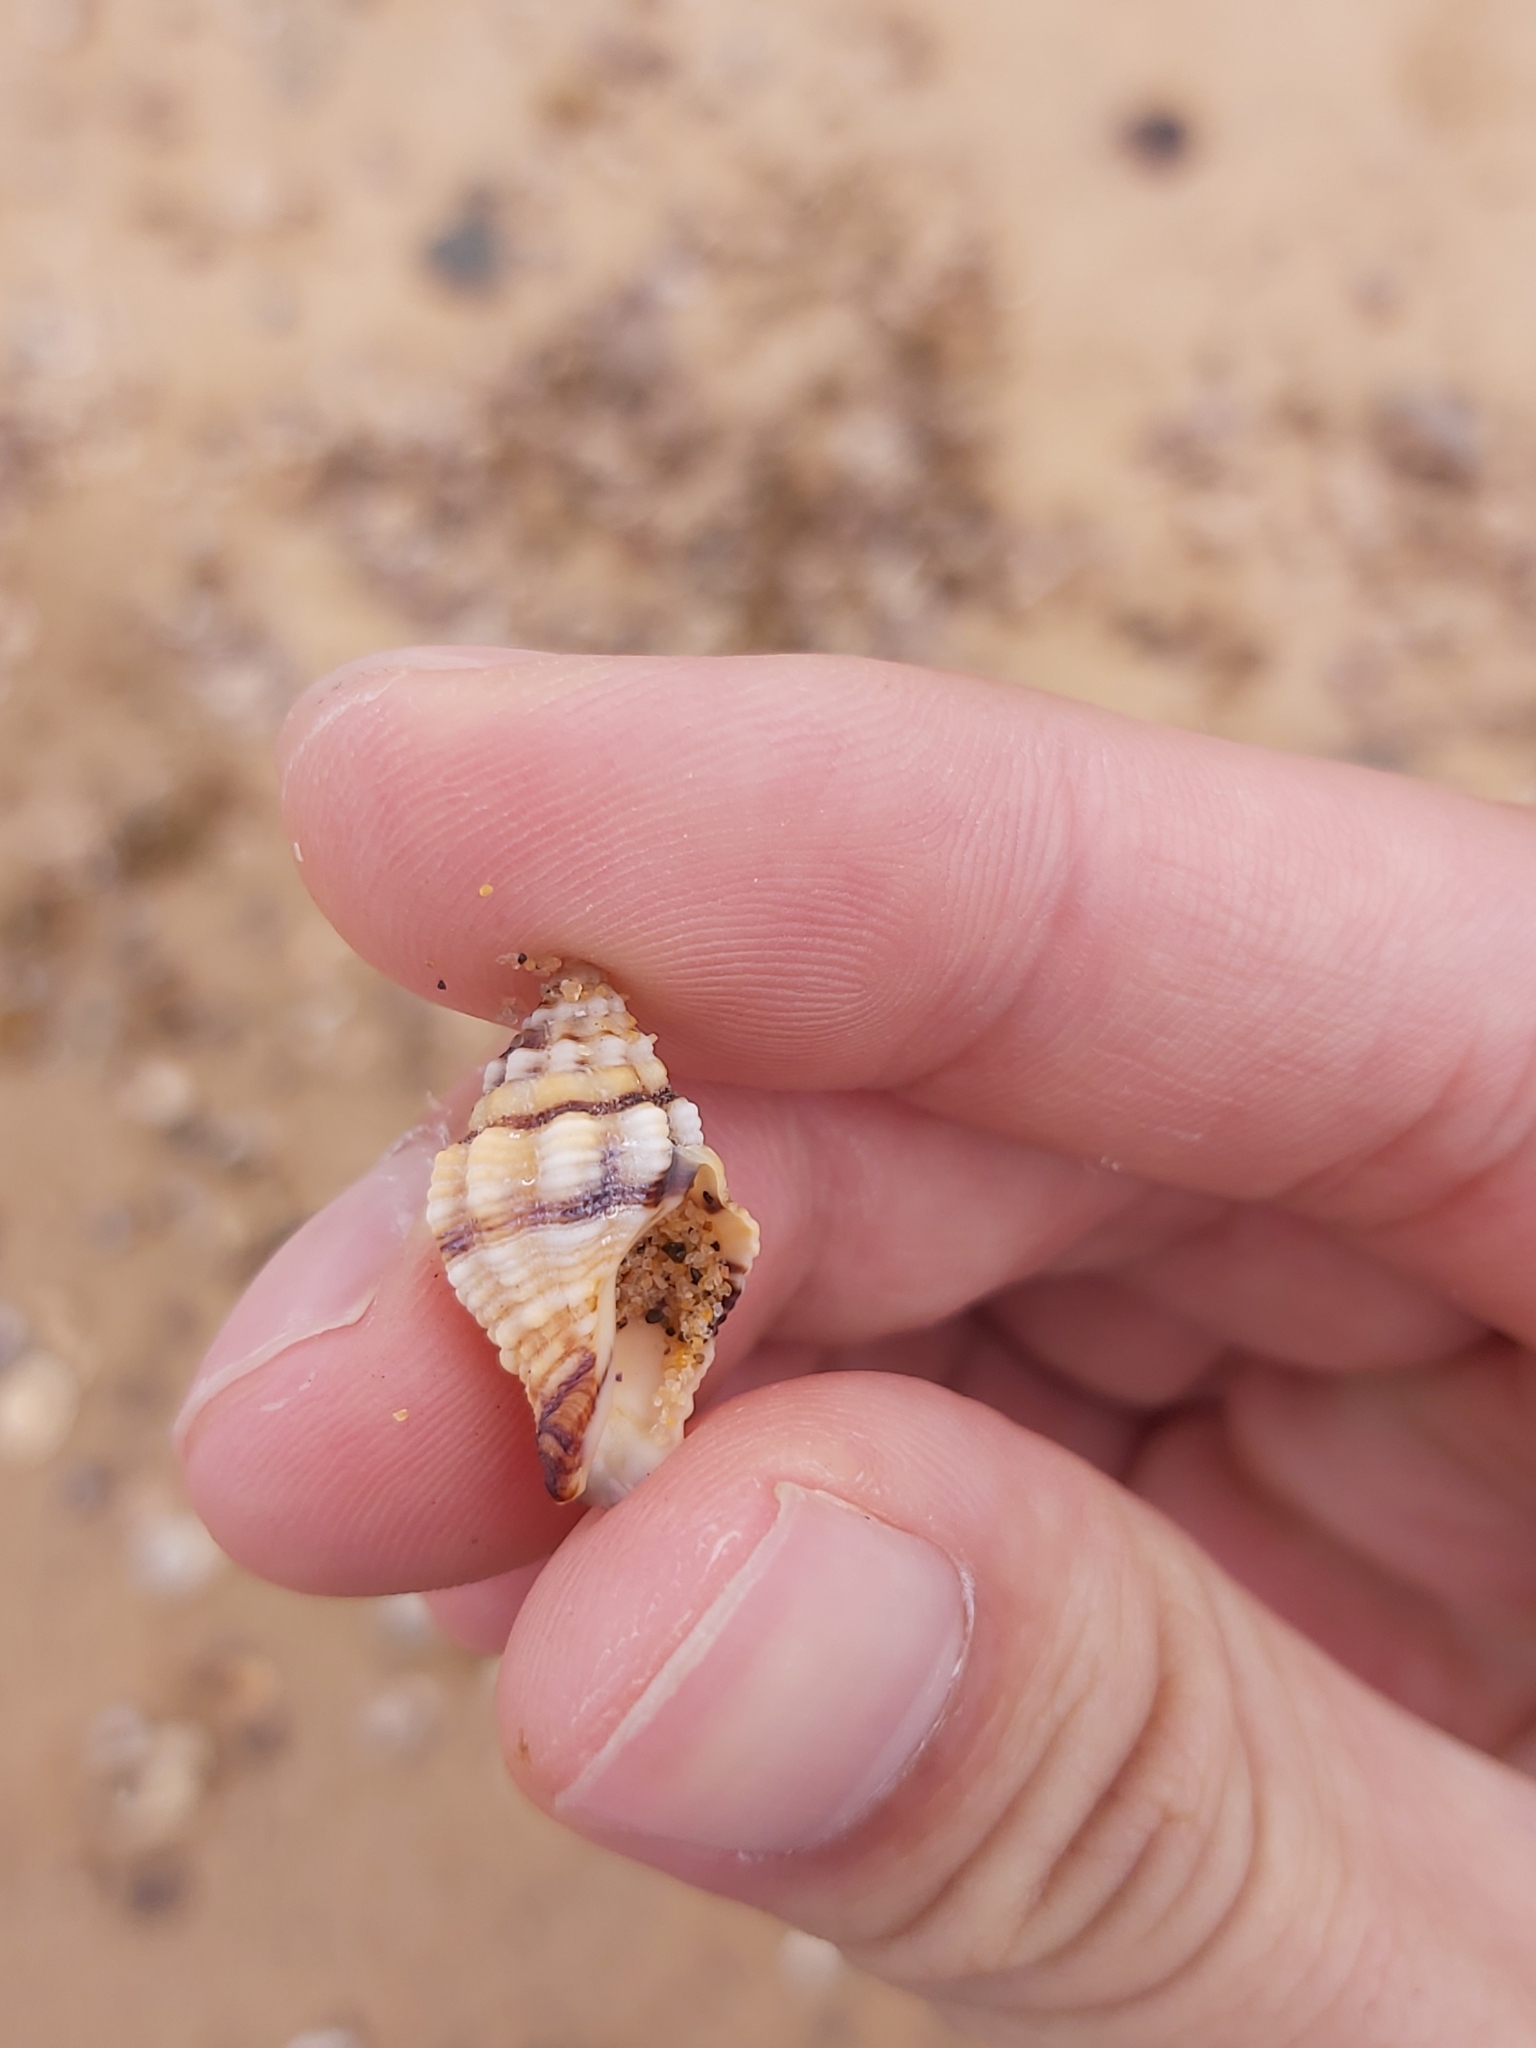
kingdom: Animalia
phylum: Mollusca
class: Gastropoda
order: Neogastropoda
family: Muricidae
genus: Cronia
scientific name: Cronia aurantiaca
